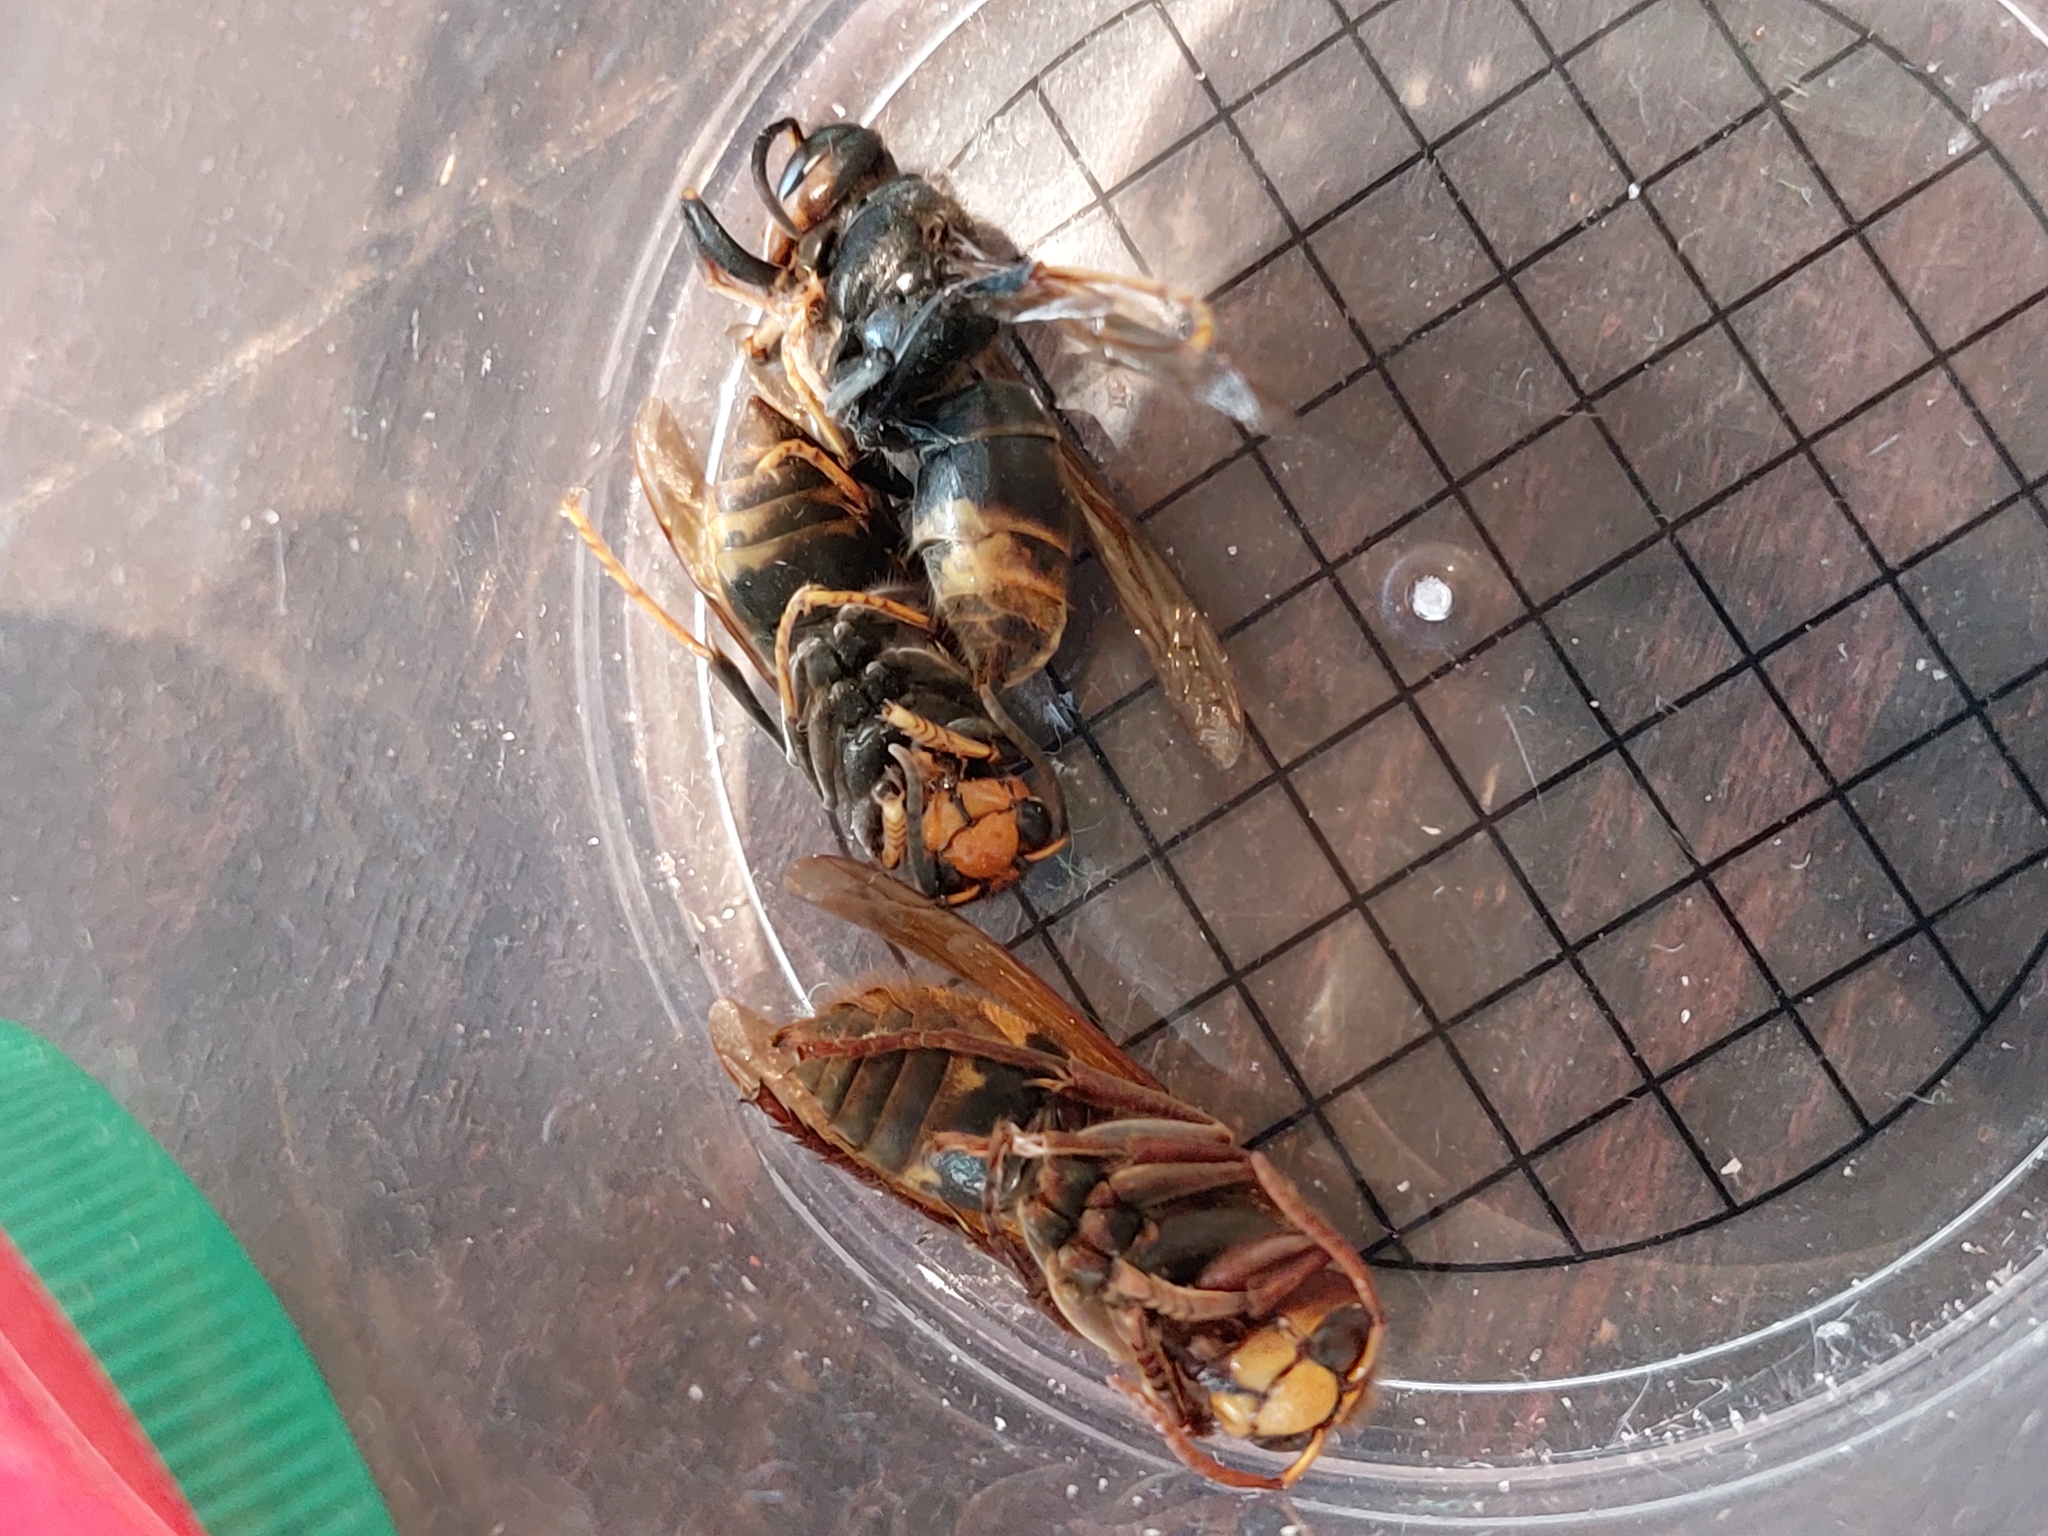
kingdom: Animalia
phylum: Arthropoda
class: Insecta
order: Hymenoptera
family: Vespidae
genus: Vespa
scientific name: Vespa velutina
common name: Asian hornet
